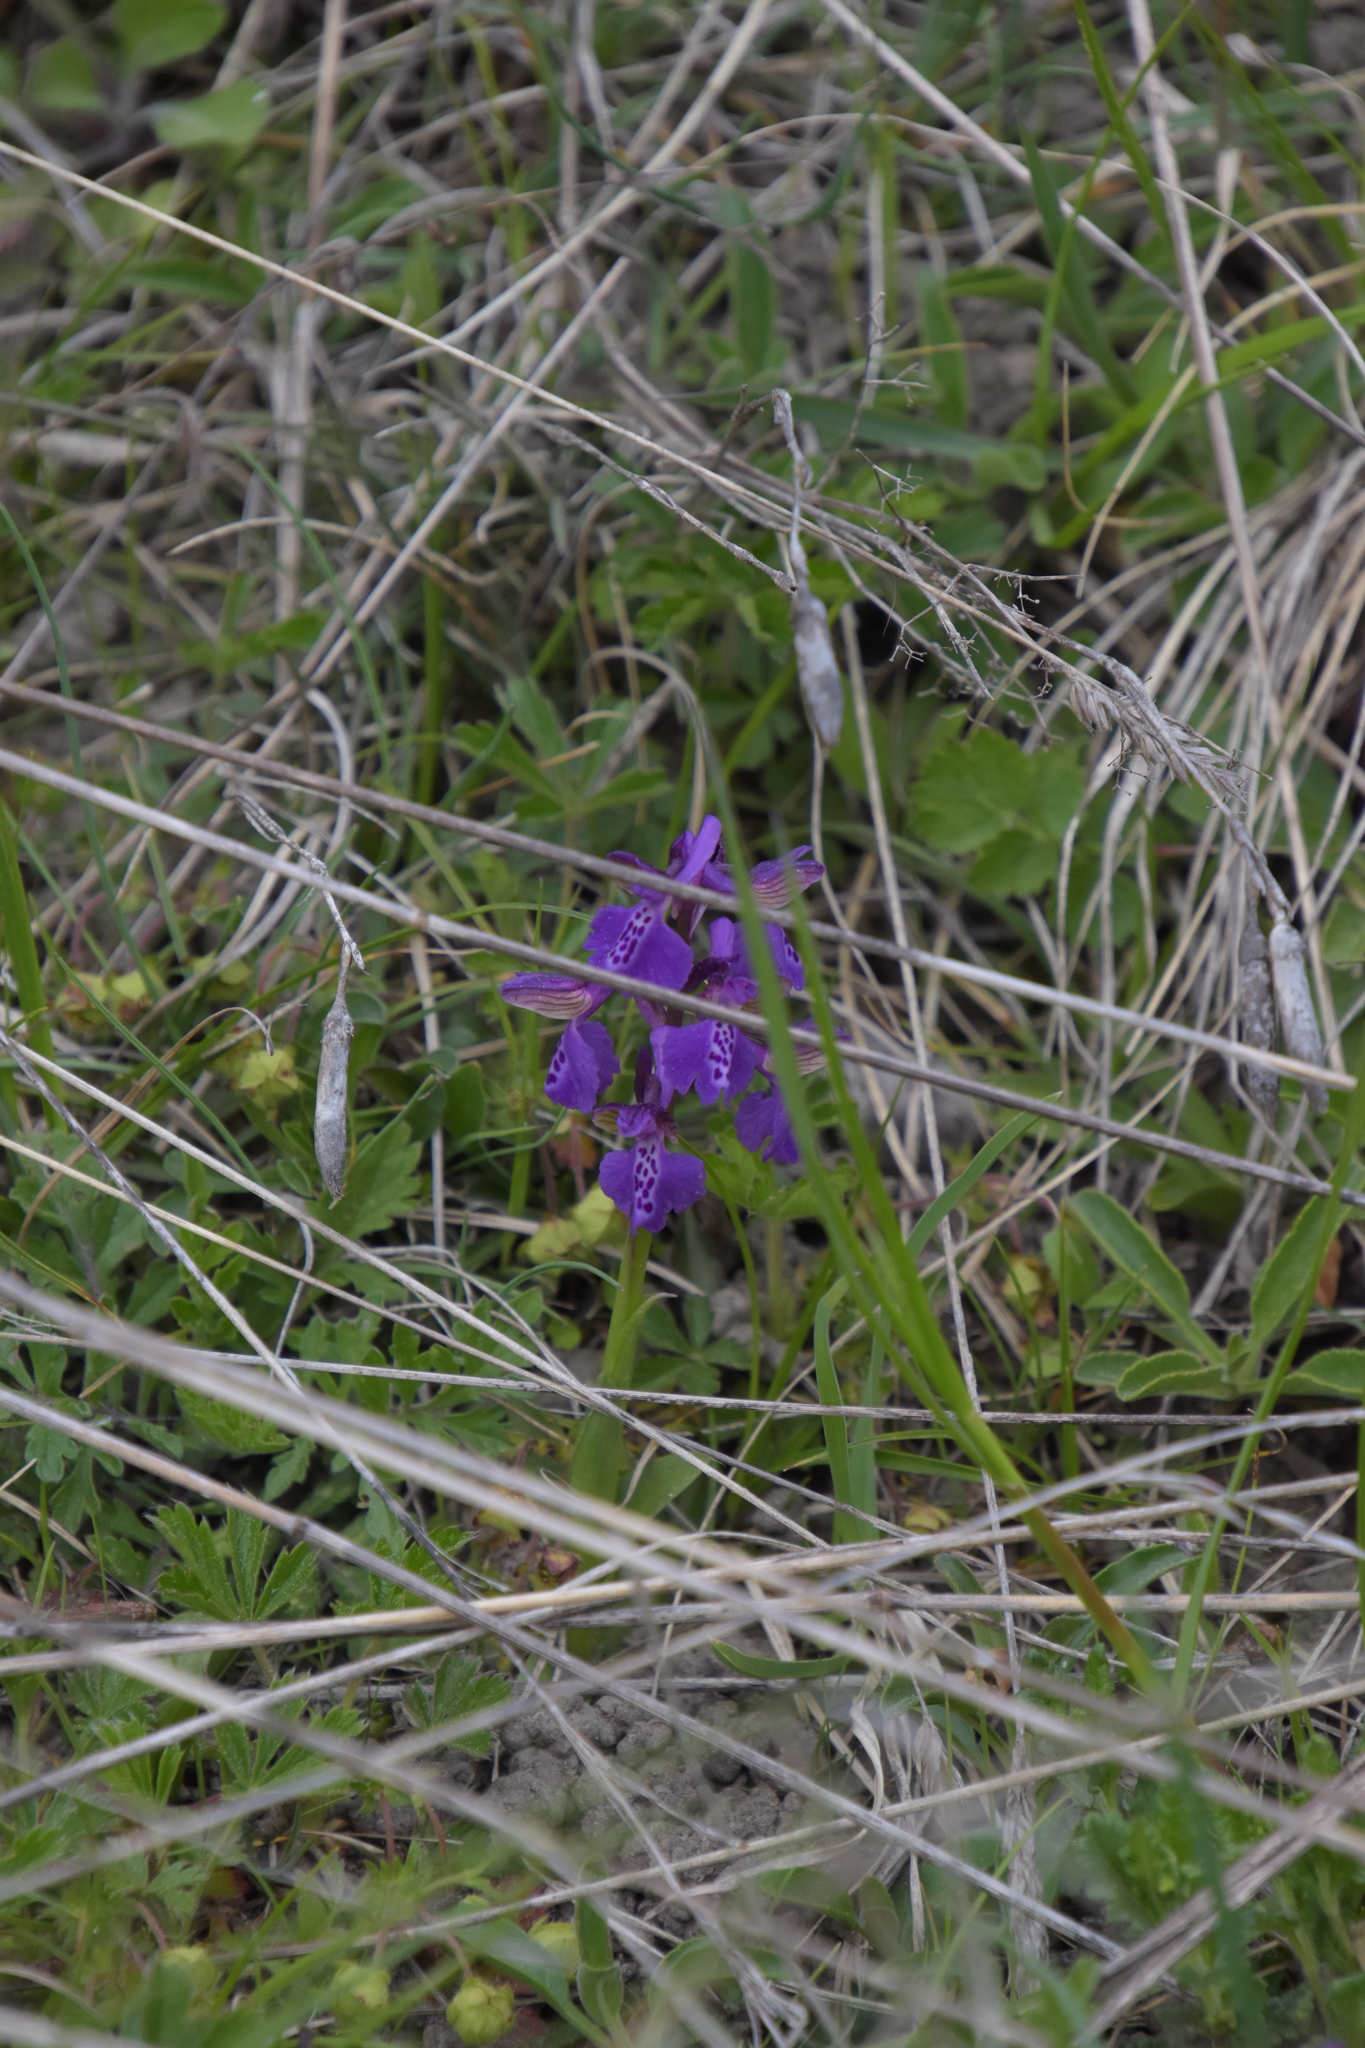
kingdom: Plantae
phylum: Tracheophyta
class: Liliopsida
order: Asparagales
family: Orchidaceae
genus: Anacamptis
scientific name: Anacamptis morio
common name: Green-winged orchid
